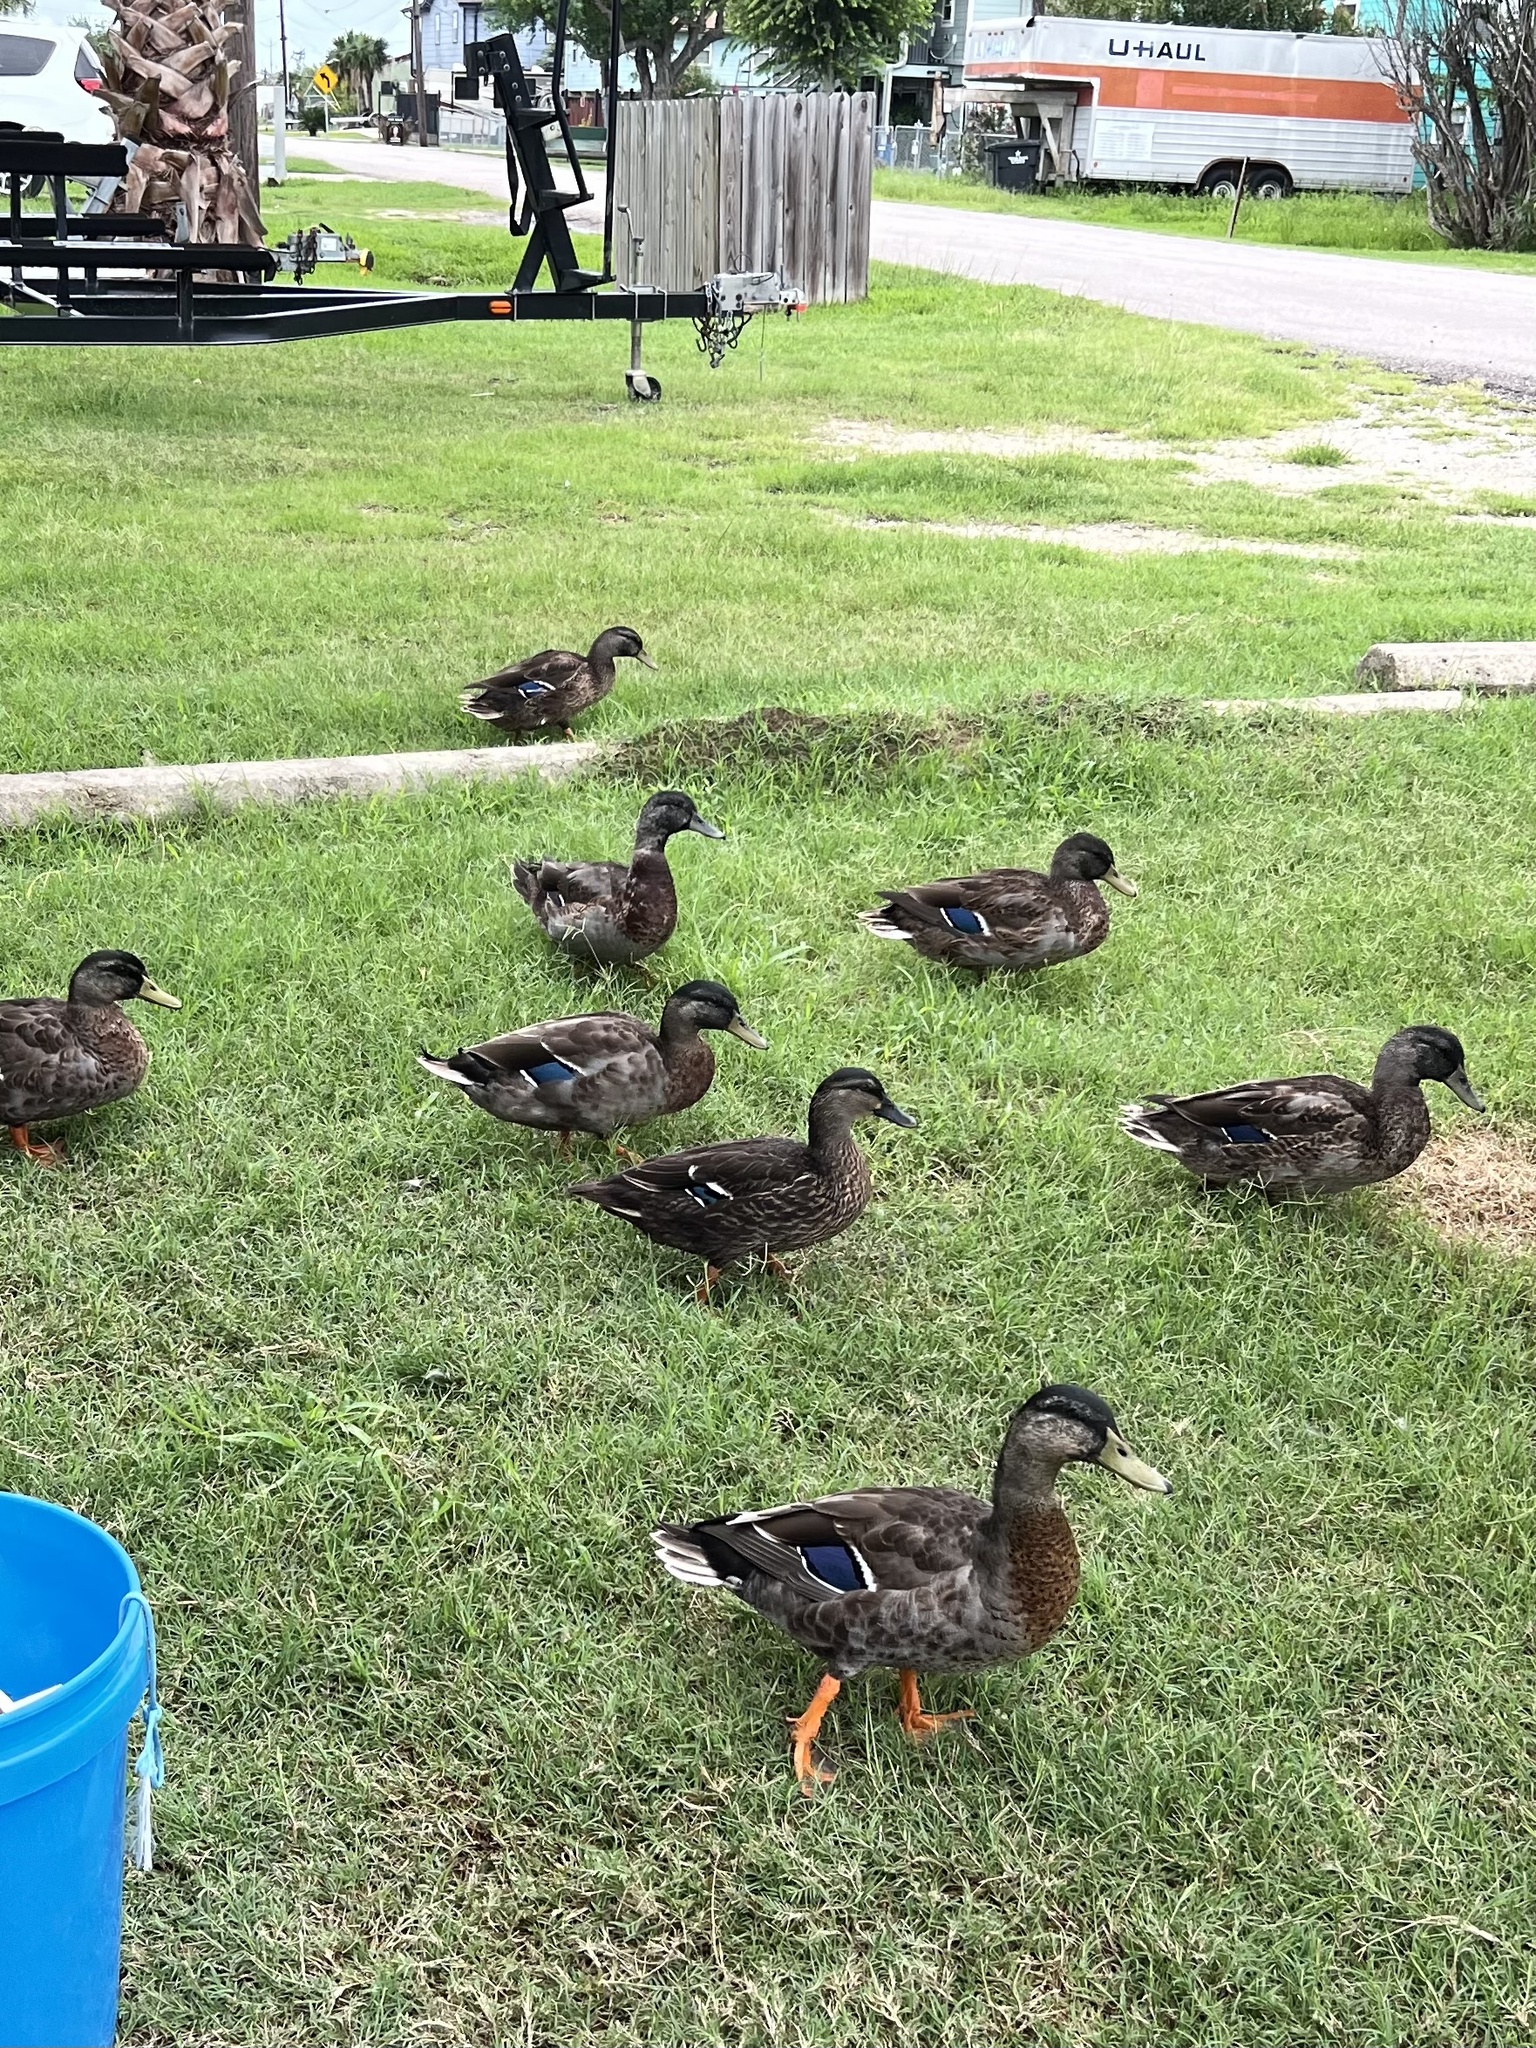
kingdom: Animalia
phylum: Chordata
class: Aves
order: Anseriformes
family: Anatidae
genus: Anas
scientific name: Anas platyrhynchos
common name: Mallard
